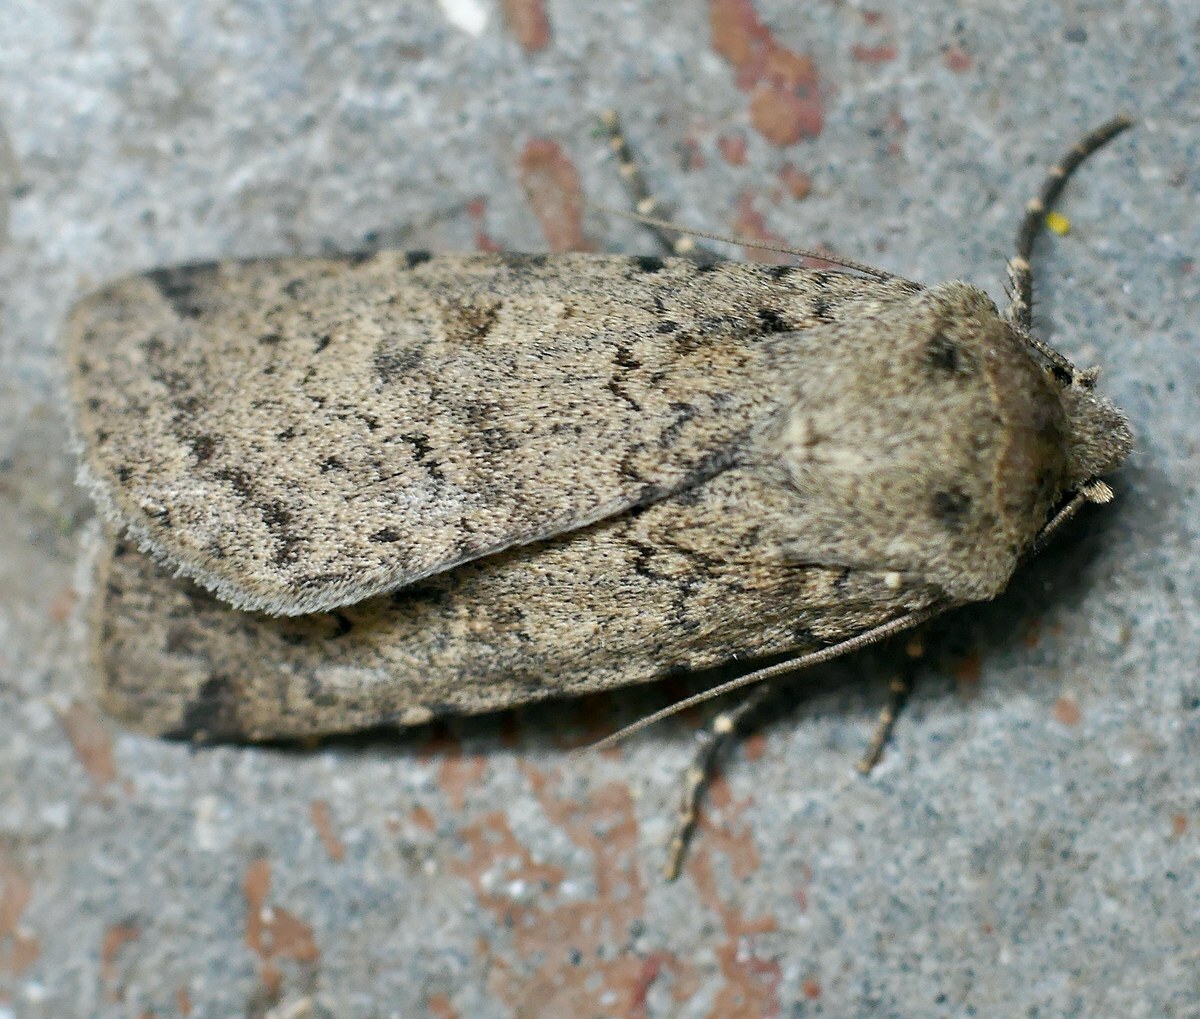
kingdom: Animalia
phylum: Arthropoda
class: Insecta
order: Lepidoptera
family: Noctuidae
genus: Rhyacia
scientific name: Rhyacia simulans
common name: Dotted rustic
